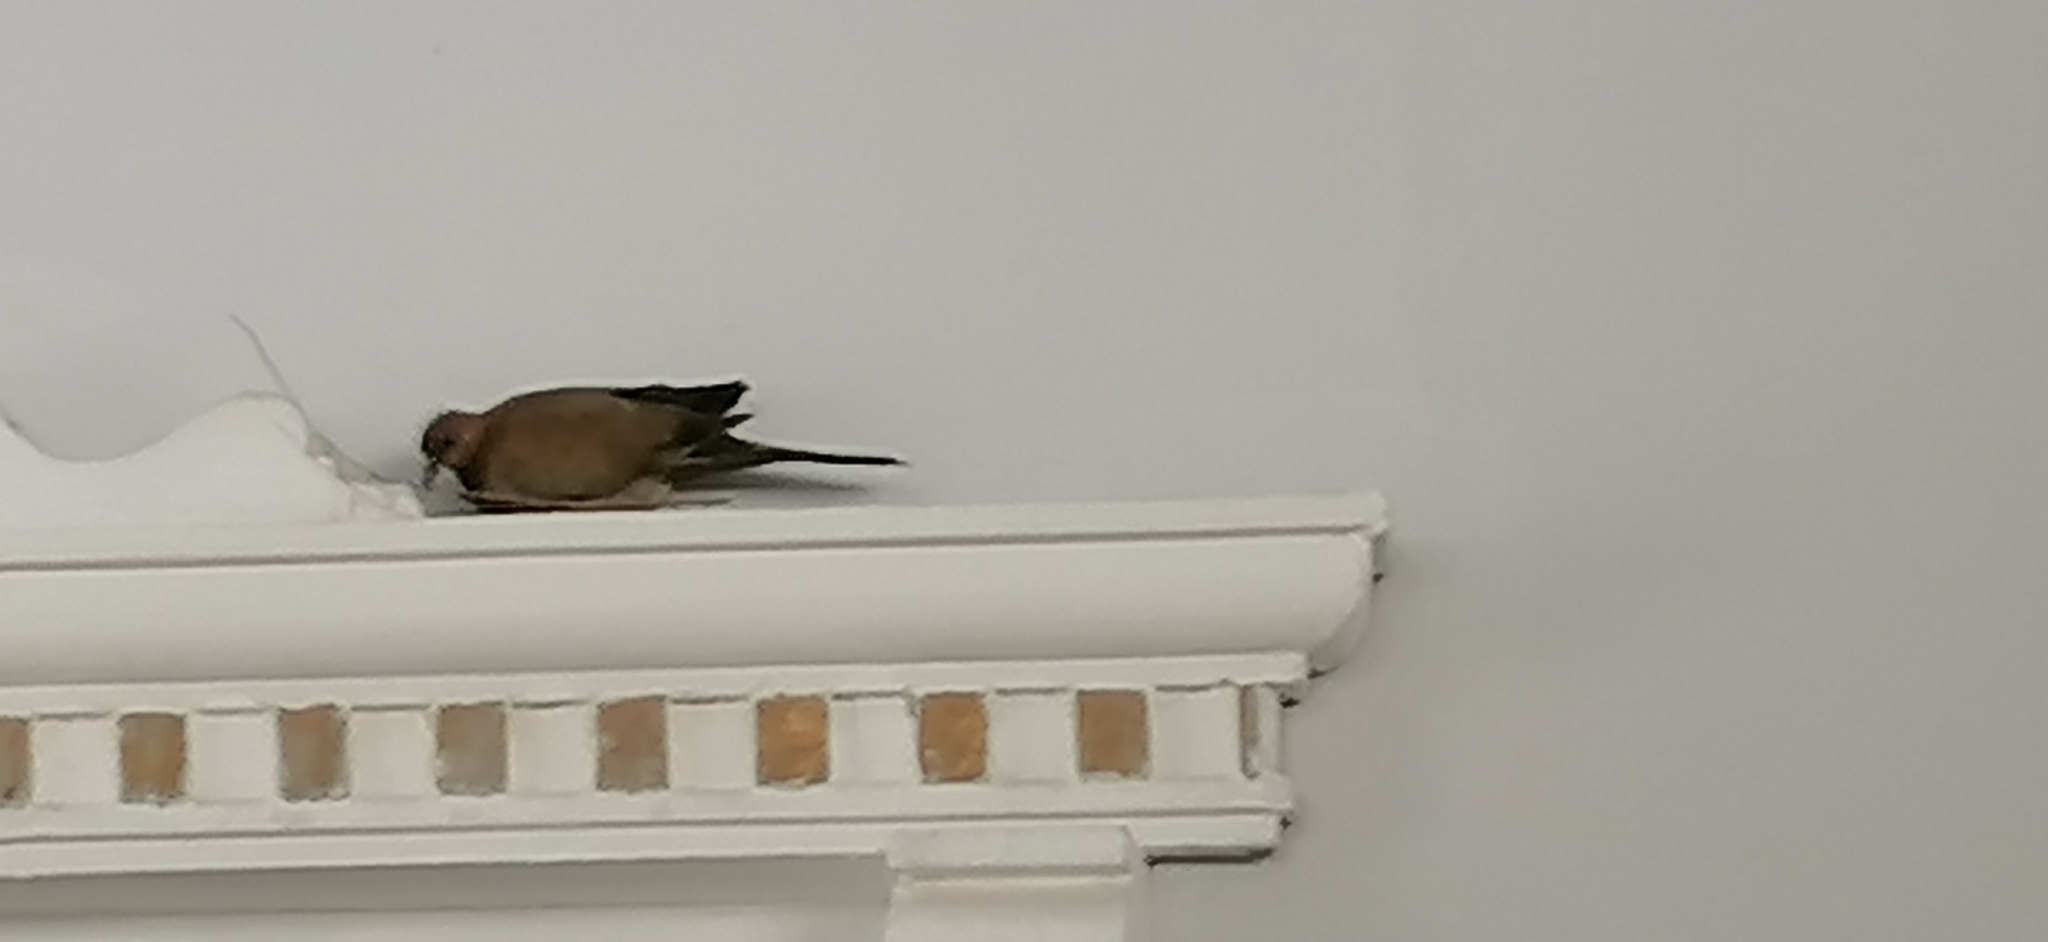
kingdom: Animalia
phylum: Chordata
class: Aves
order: Columbiformes
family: Columbidae
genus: Spilopelia
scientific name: Spilopelia senegalensis
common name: Laughing dove
